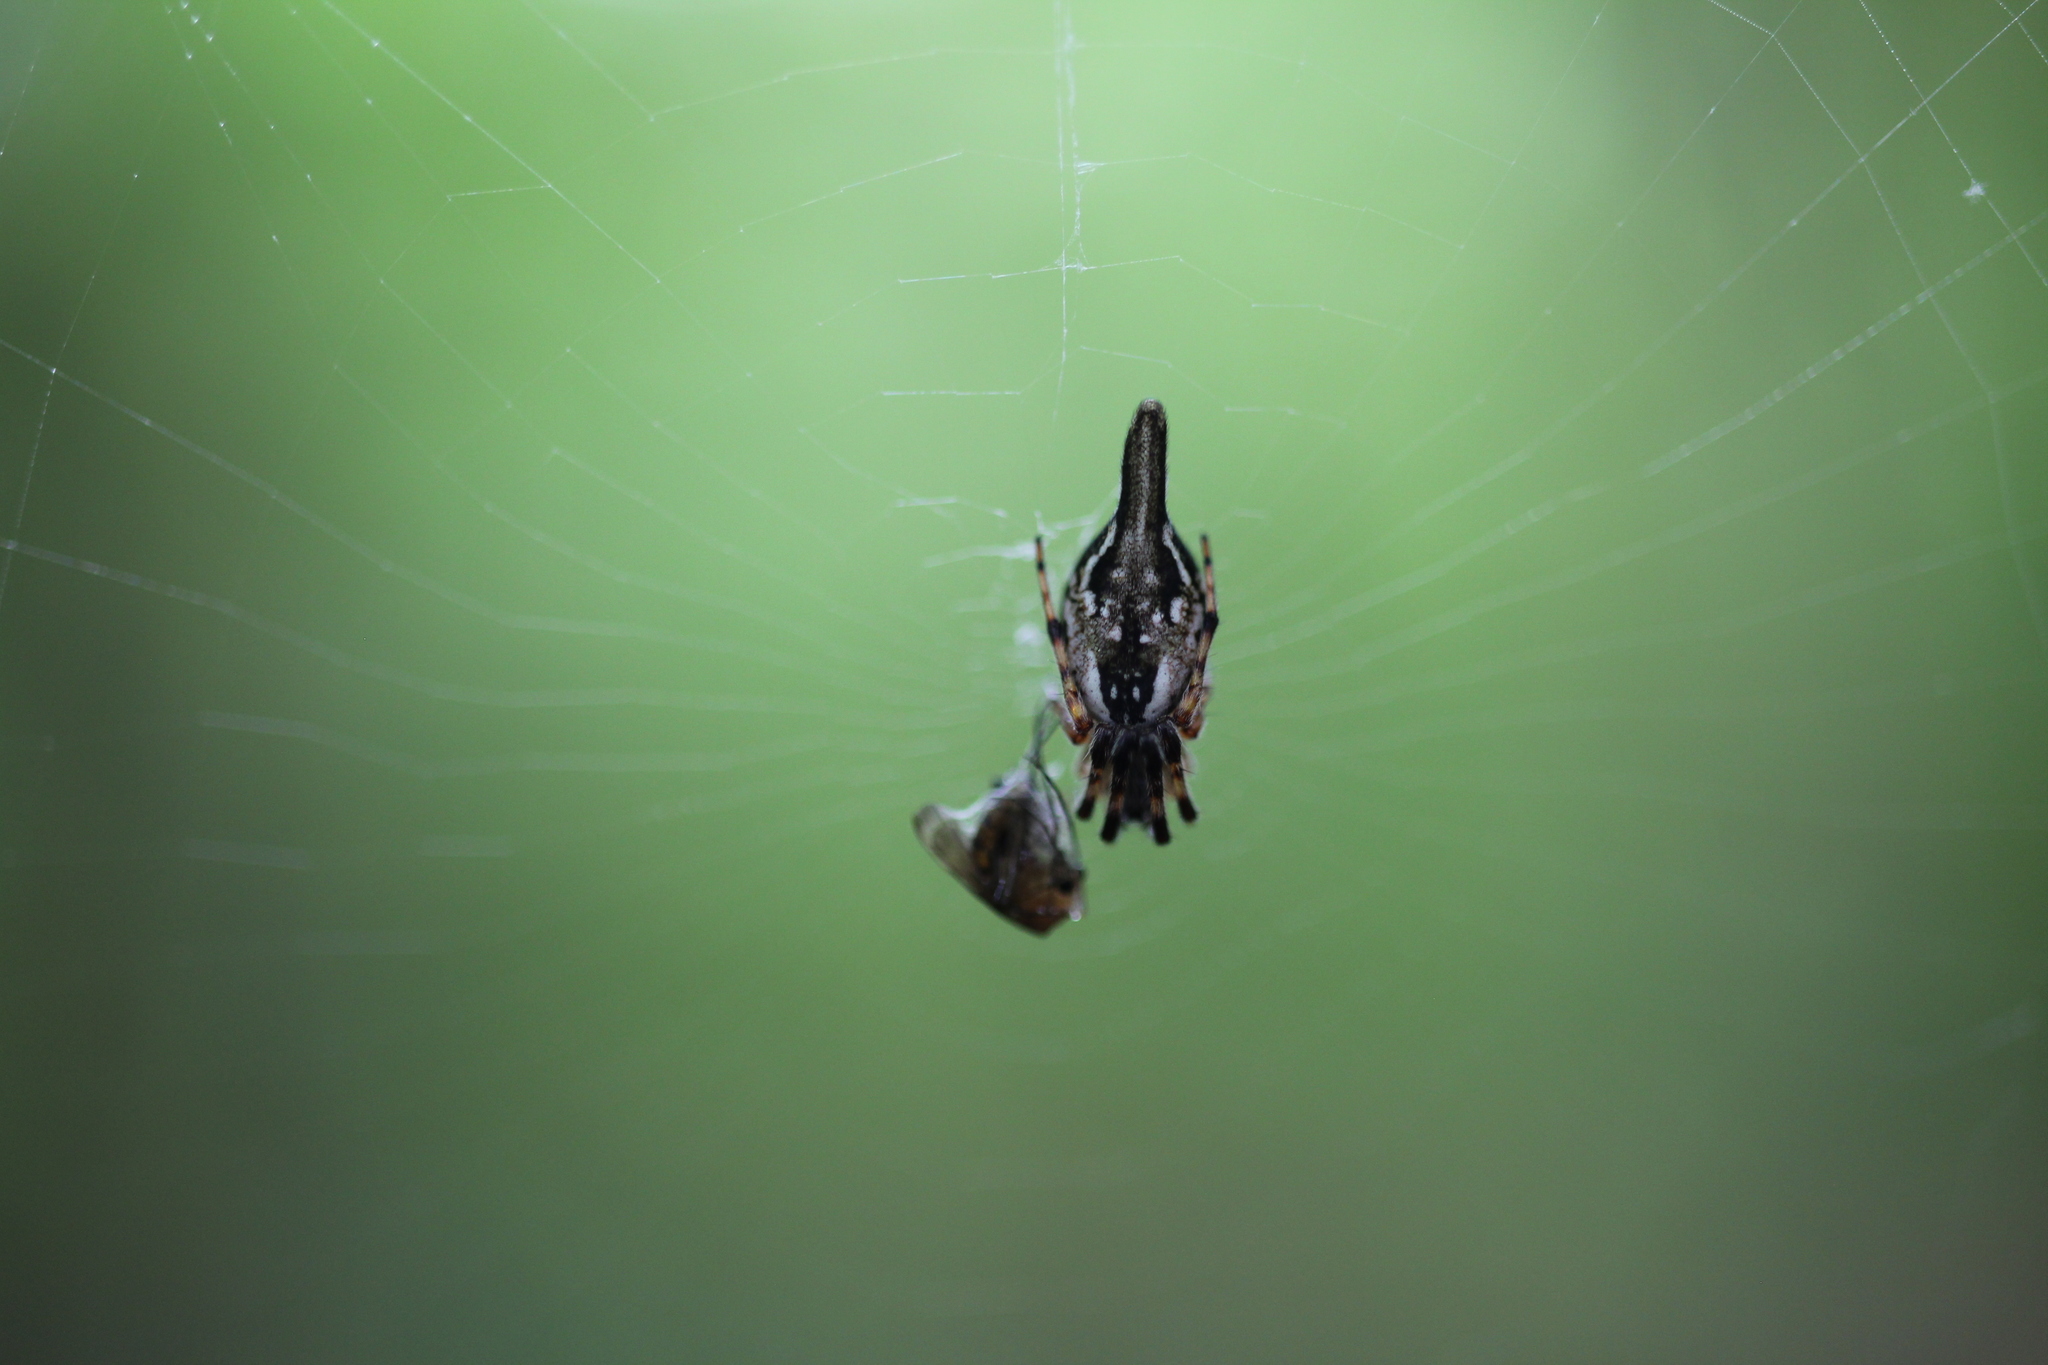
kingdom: Animalia
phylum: Arthropoda
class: Arachnida
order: Araneae
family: Araneidae
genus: Cyclosa
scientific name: Cyclosa conica
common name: Conical trashline orbweaver
